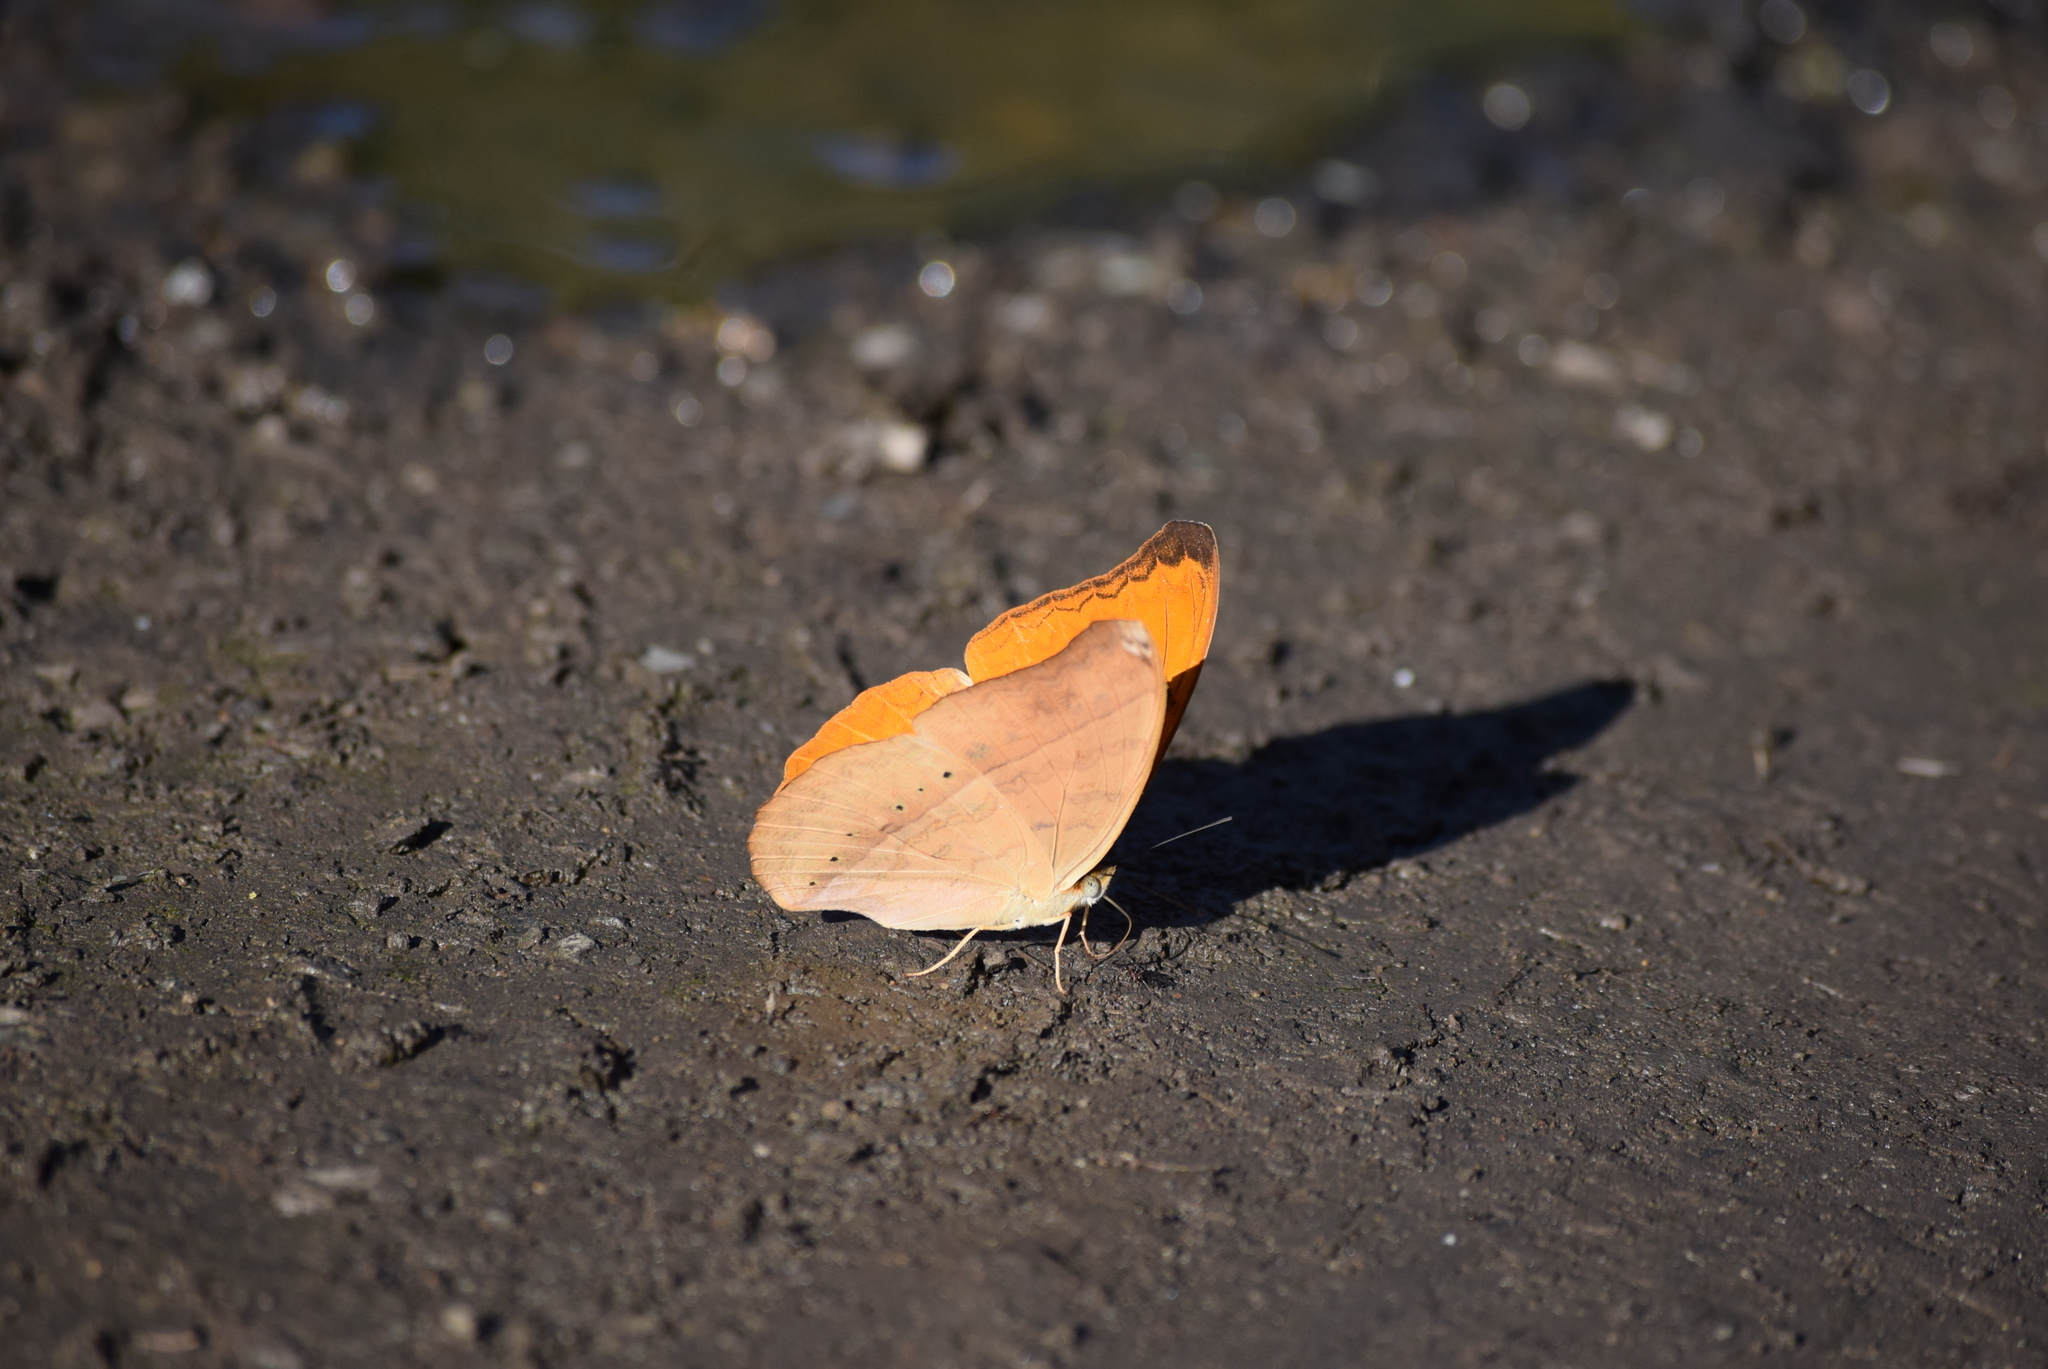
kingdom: Animalia
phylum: Arthropoda
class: Insecta
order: Lepidoptera
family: Nymphalidae
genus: Cirrochroa
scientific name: Cirrochroa tyche
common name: Common yeoman
